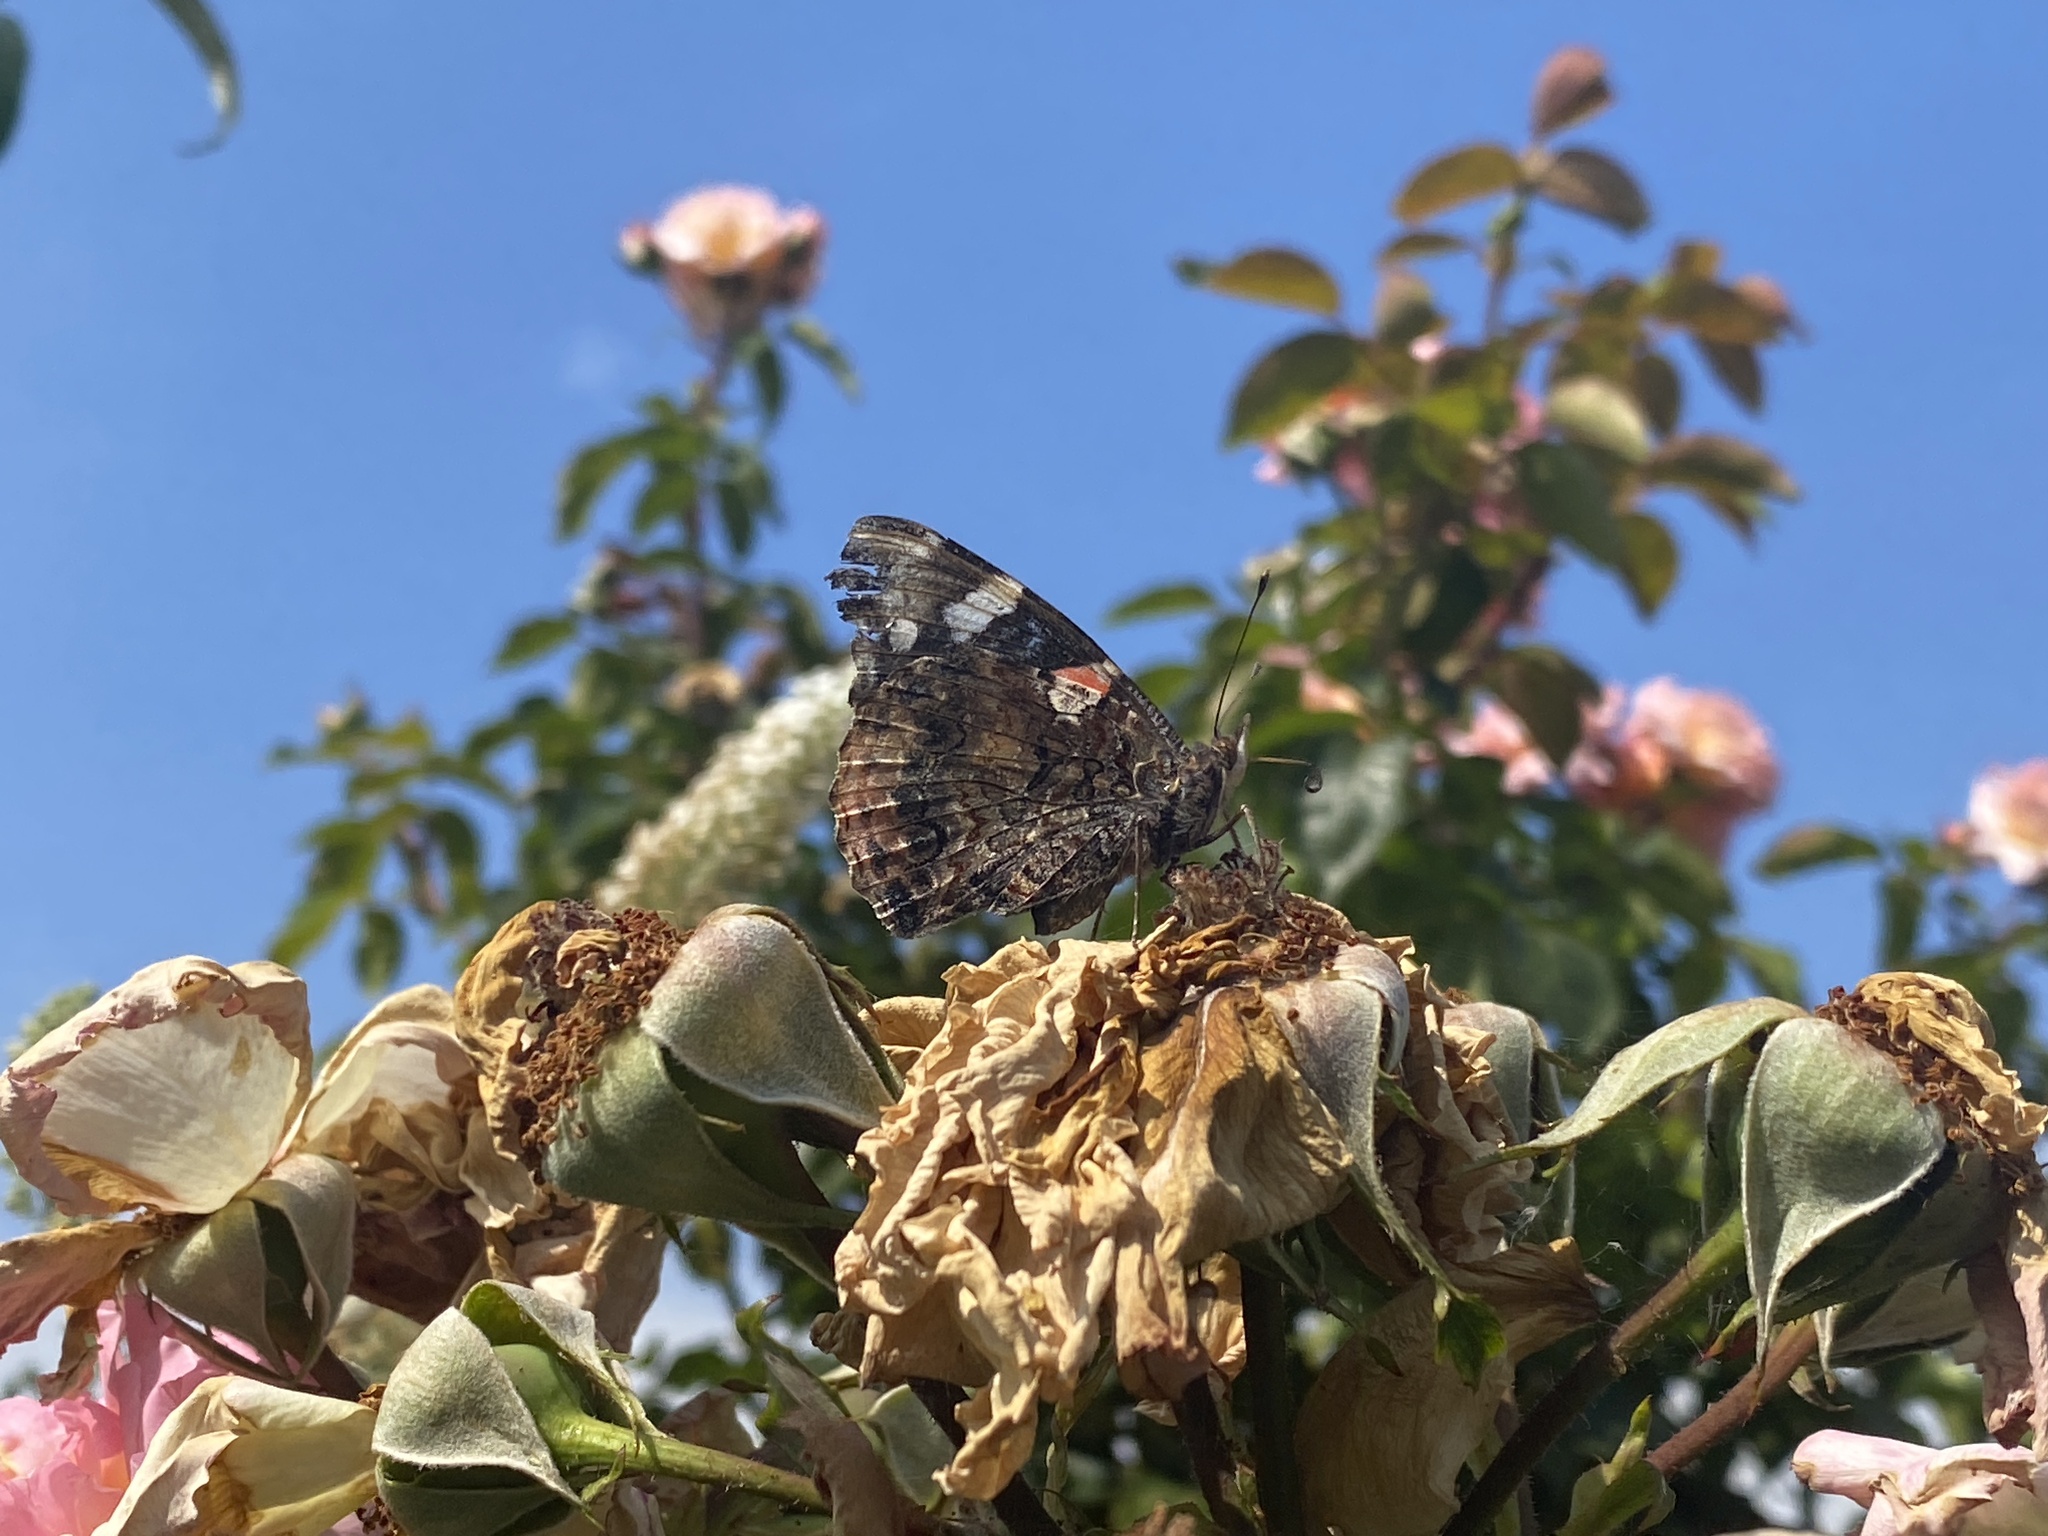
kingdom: Animalia
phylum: Arthropoda
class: Insecta
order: Lepidoptera
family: Nymphalidae
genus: Vanessa
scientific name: Vanessa atalanta
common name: Red admiral
